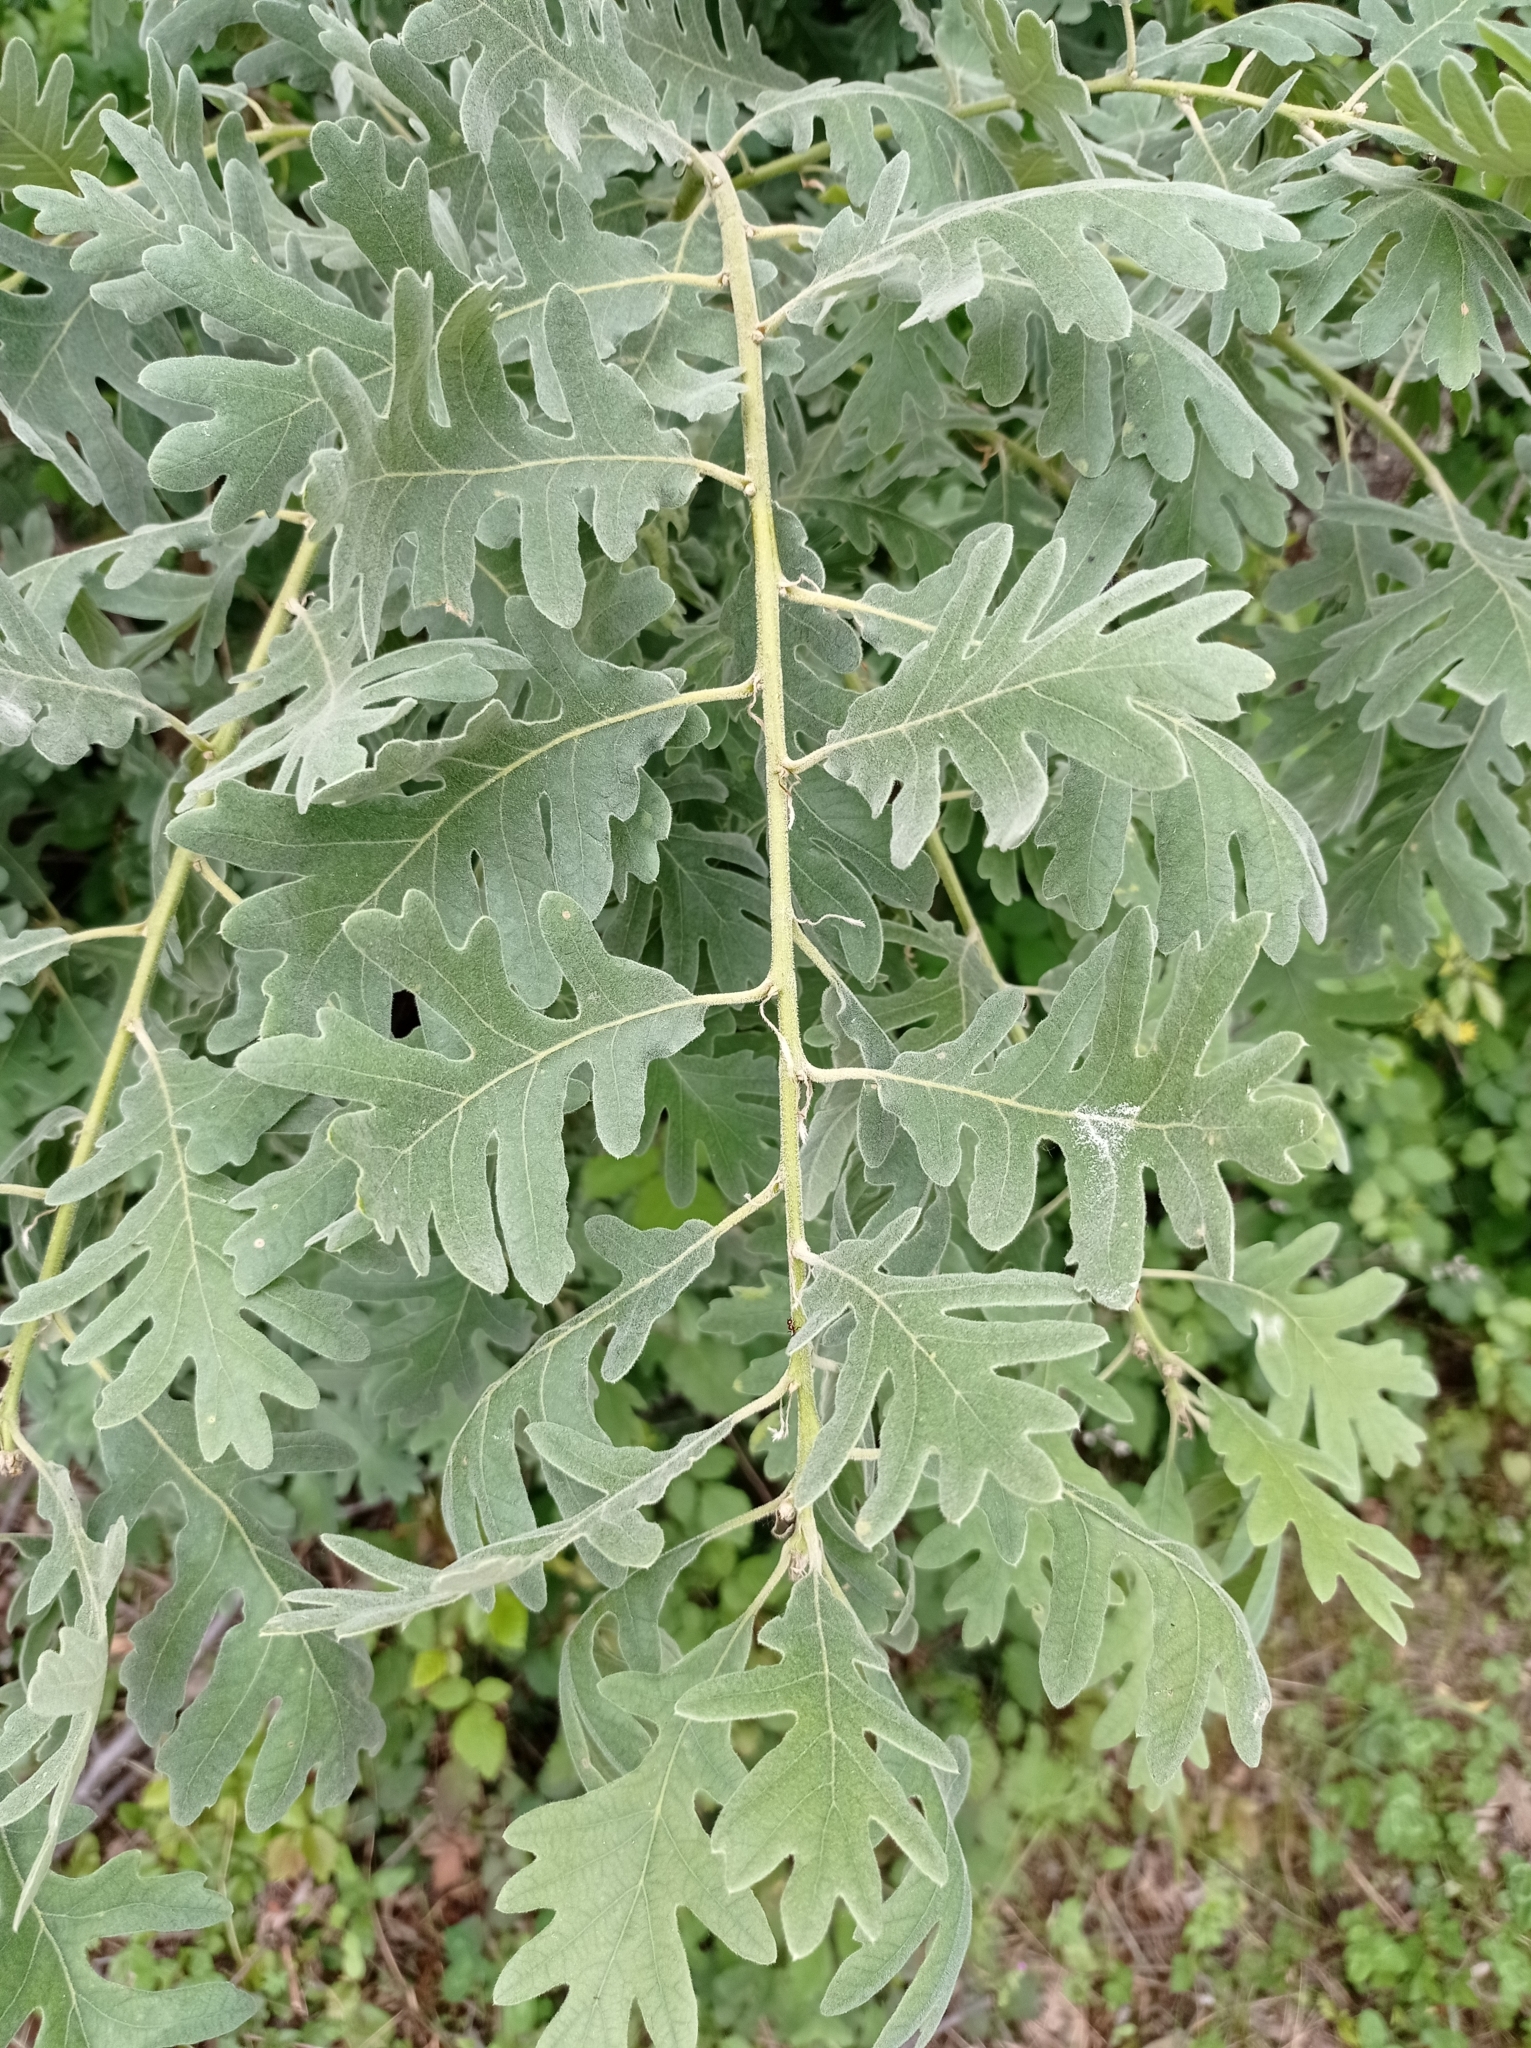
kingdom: Plantae
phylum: Tracheophyta
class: Magnoliopsida
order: Fagales
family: Fagaceae
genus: Quercus
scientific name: Quercus pyrenaica
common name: Pyrenean oak
